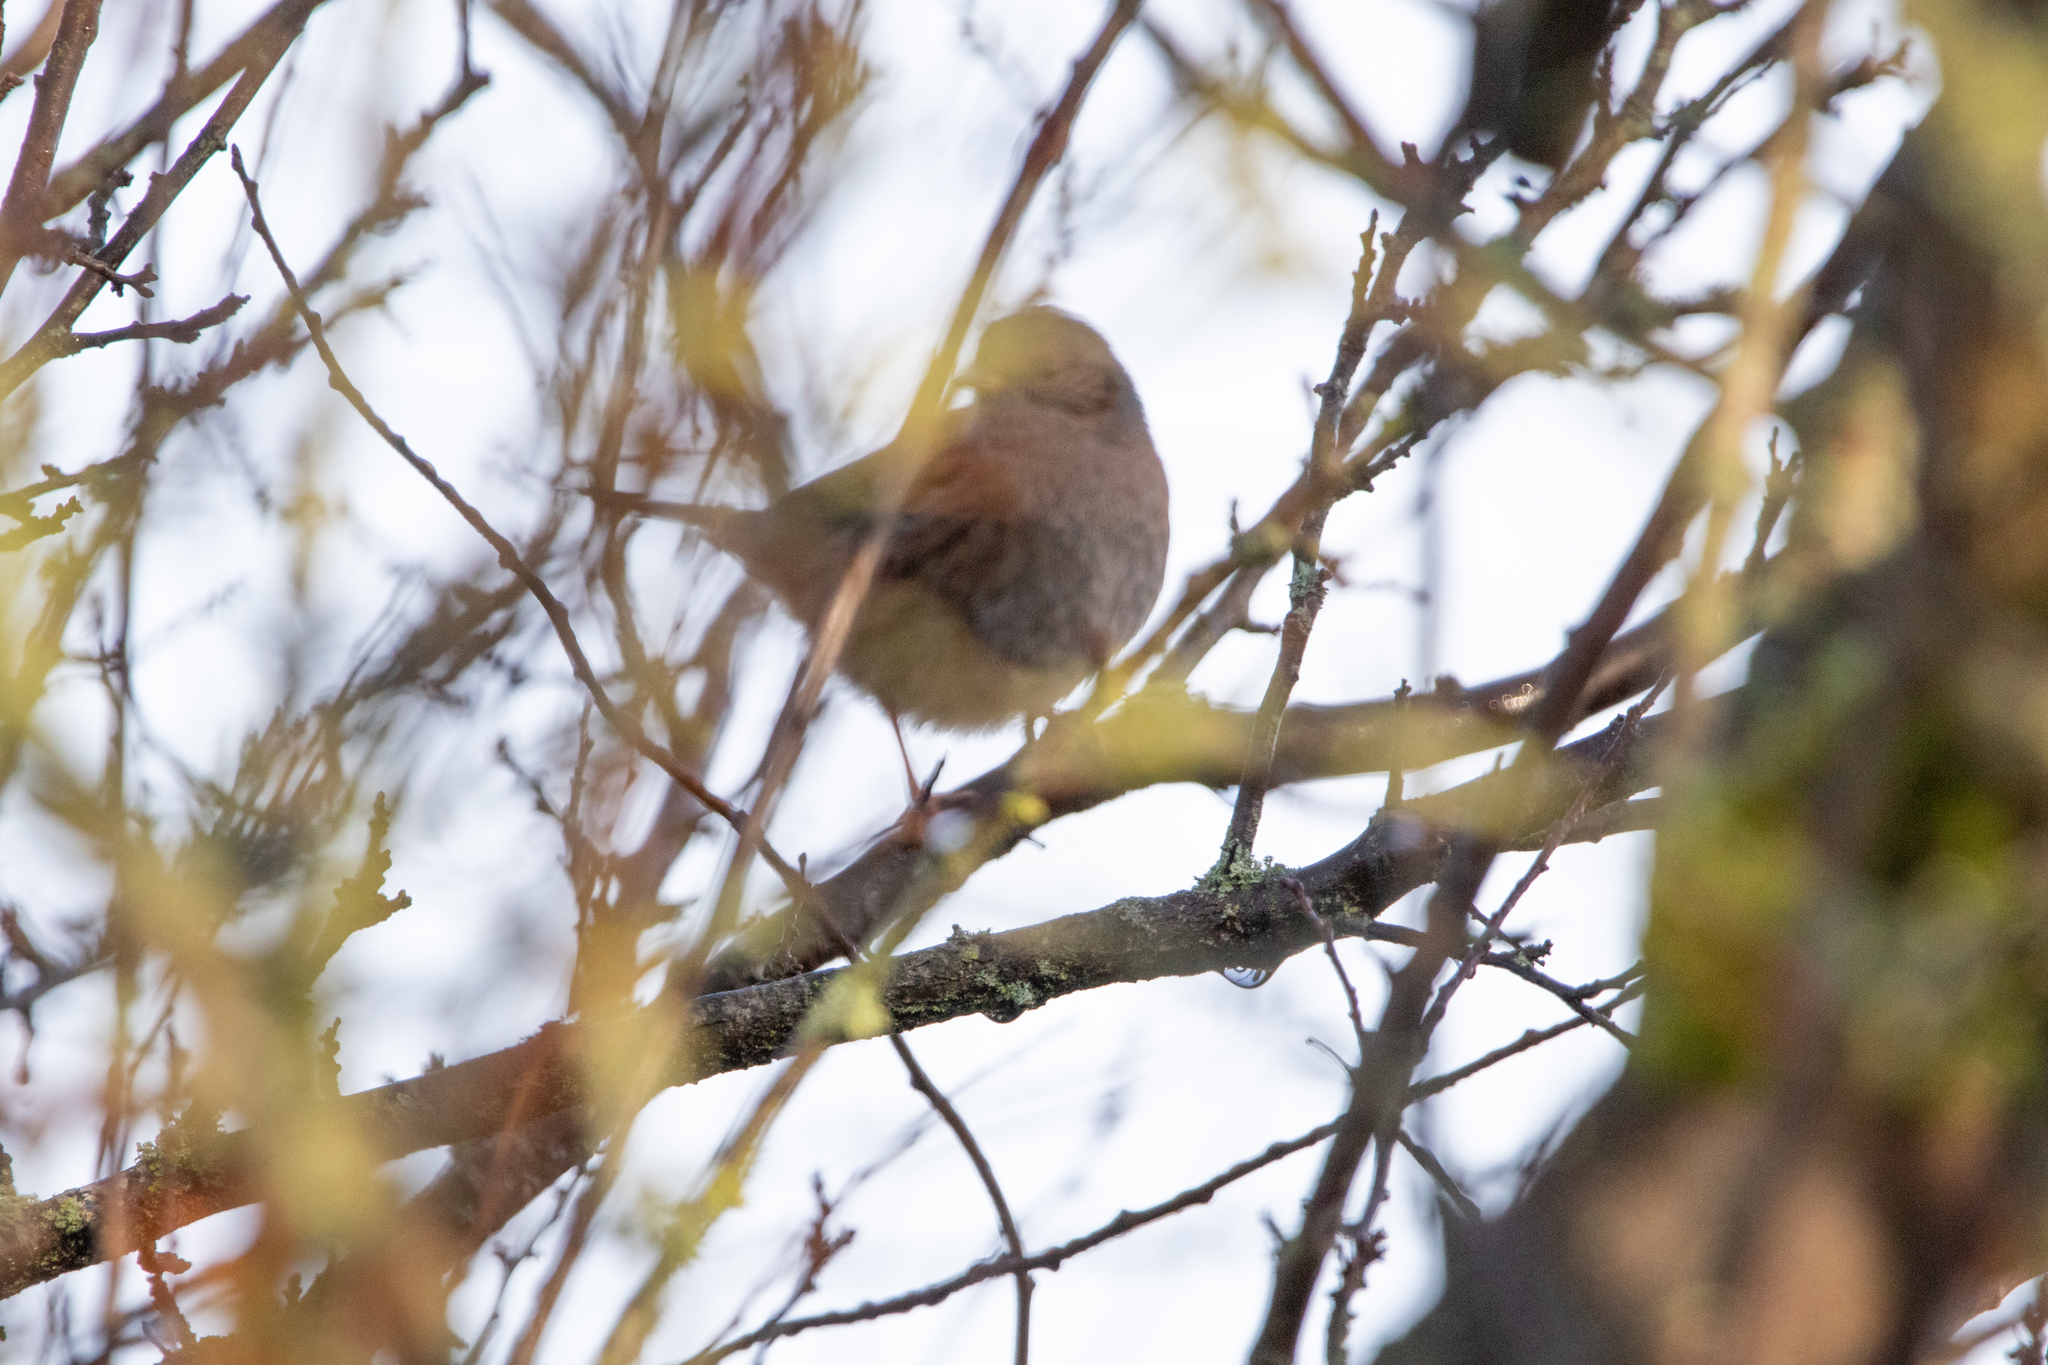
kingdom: Animalia
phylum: Chordata
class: Aves
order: Passeriformes
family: Prunellidae
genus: Prunella
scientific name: Prunella modularis
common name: Dunnock
